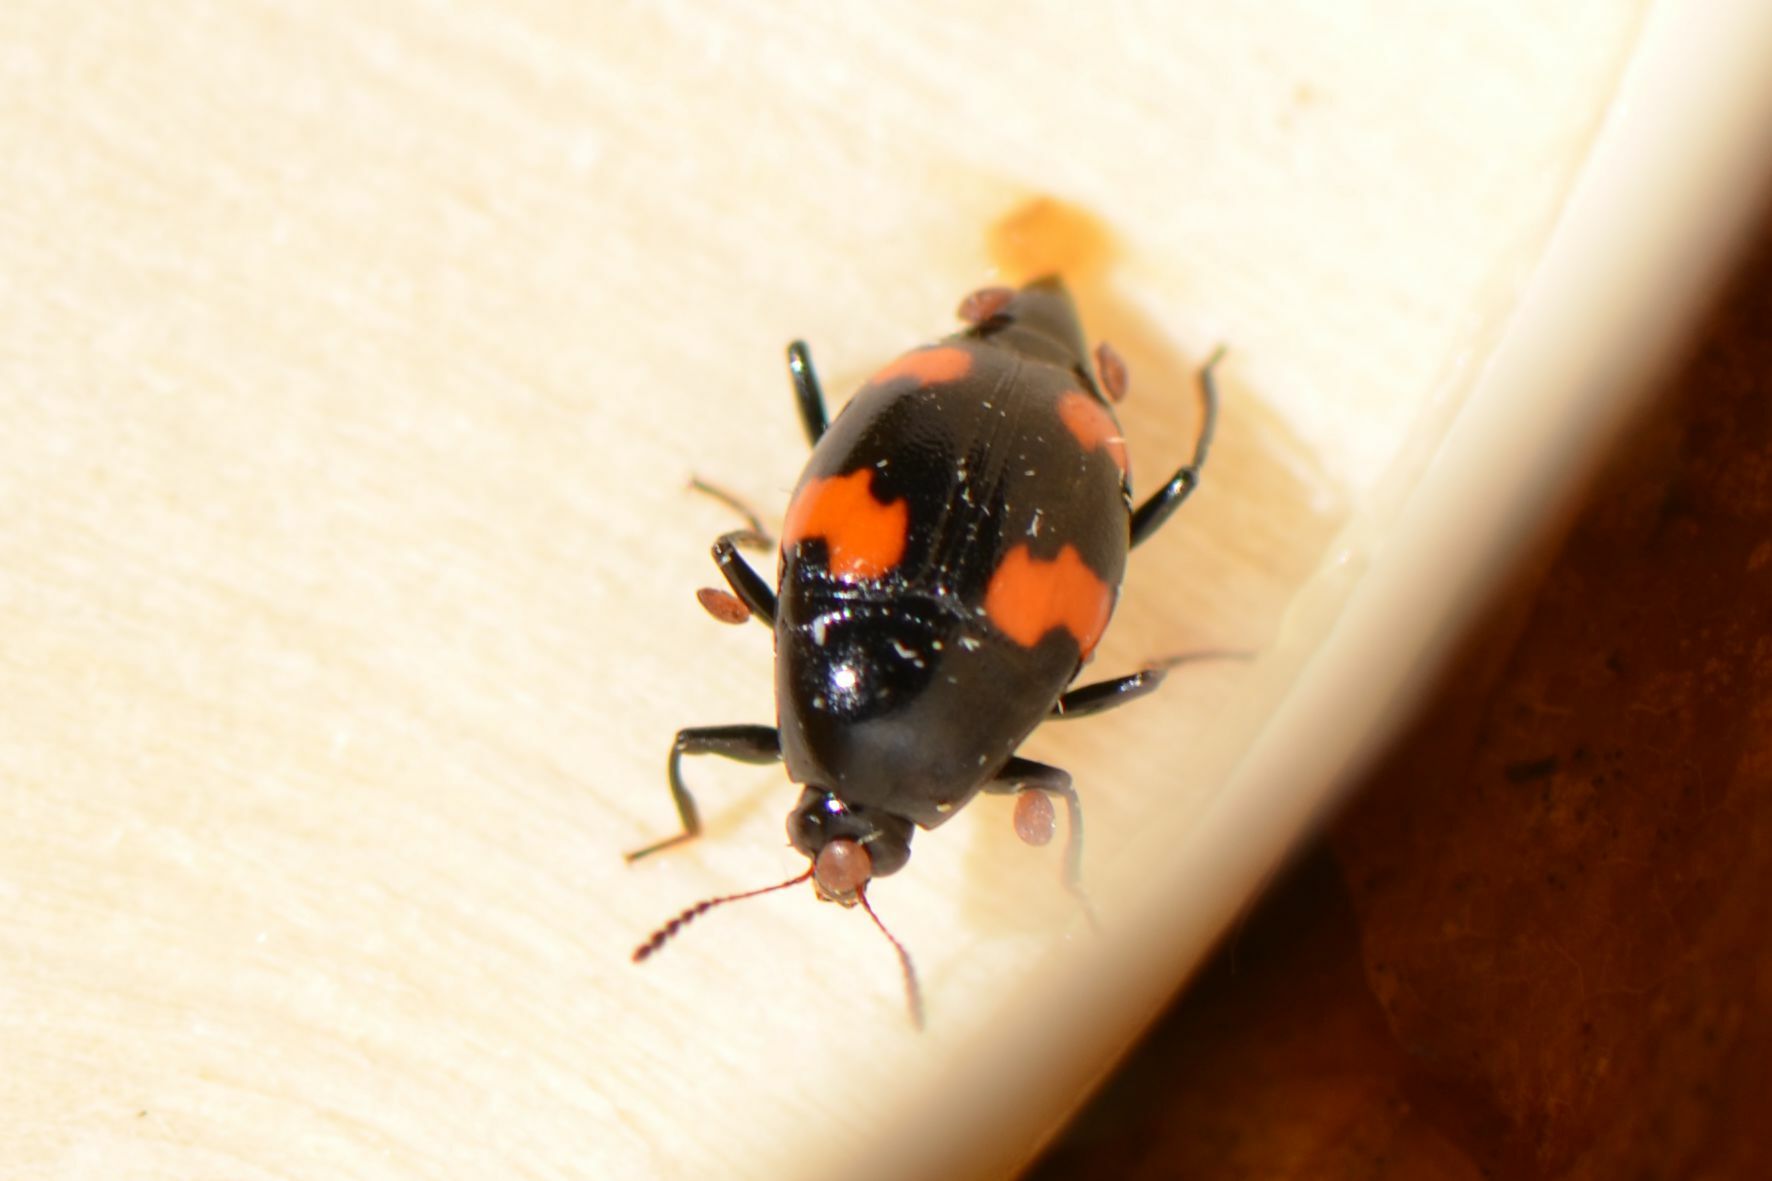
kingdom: Animalia
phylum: Arthropoda
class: Insecta
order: Coleoptera
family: Staphylinidae
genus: Scaphidium
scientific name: Scaphidium quadrimaculatum
